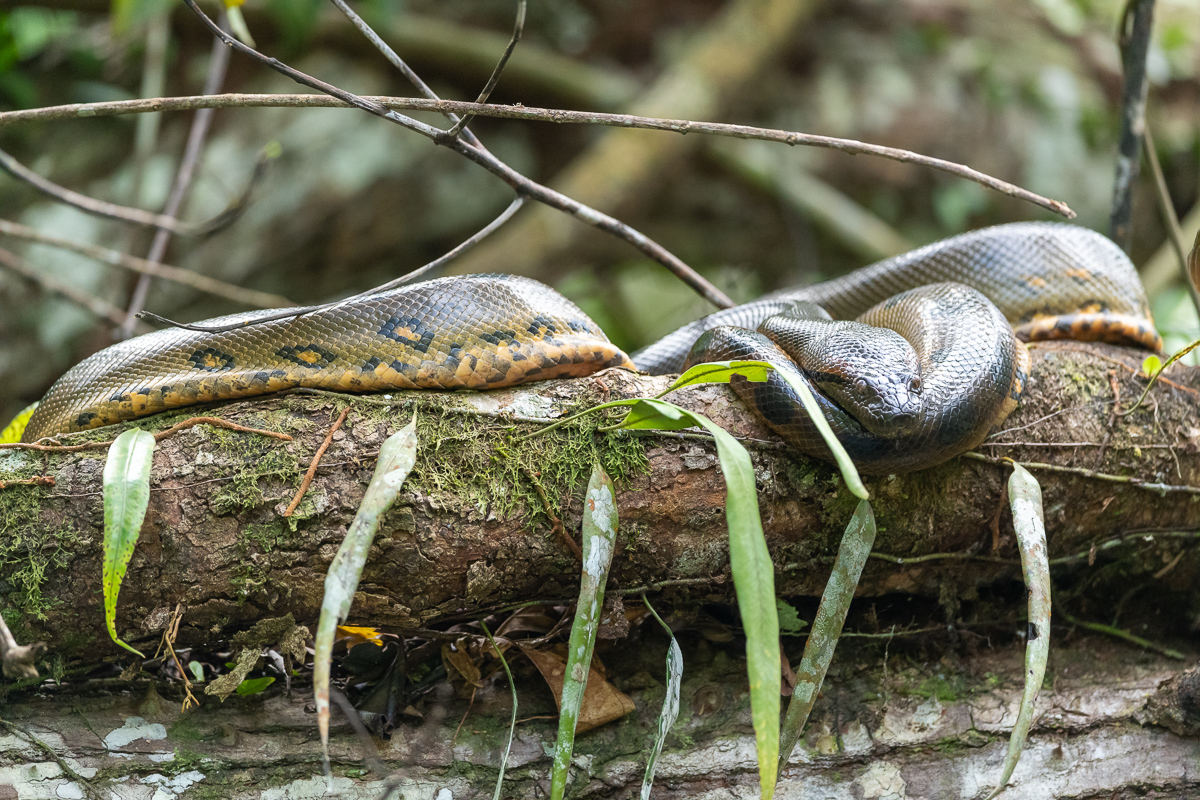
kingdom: Animalia
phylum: Chordata
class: Squamata
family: Boidae
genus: Eunectes
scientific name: Eunectes murinus
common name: Anaconda
